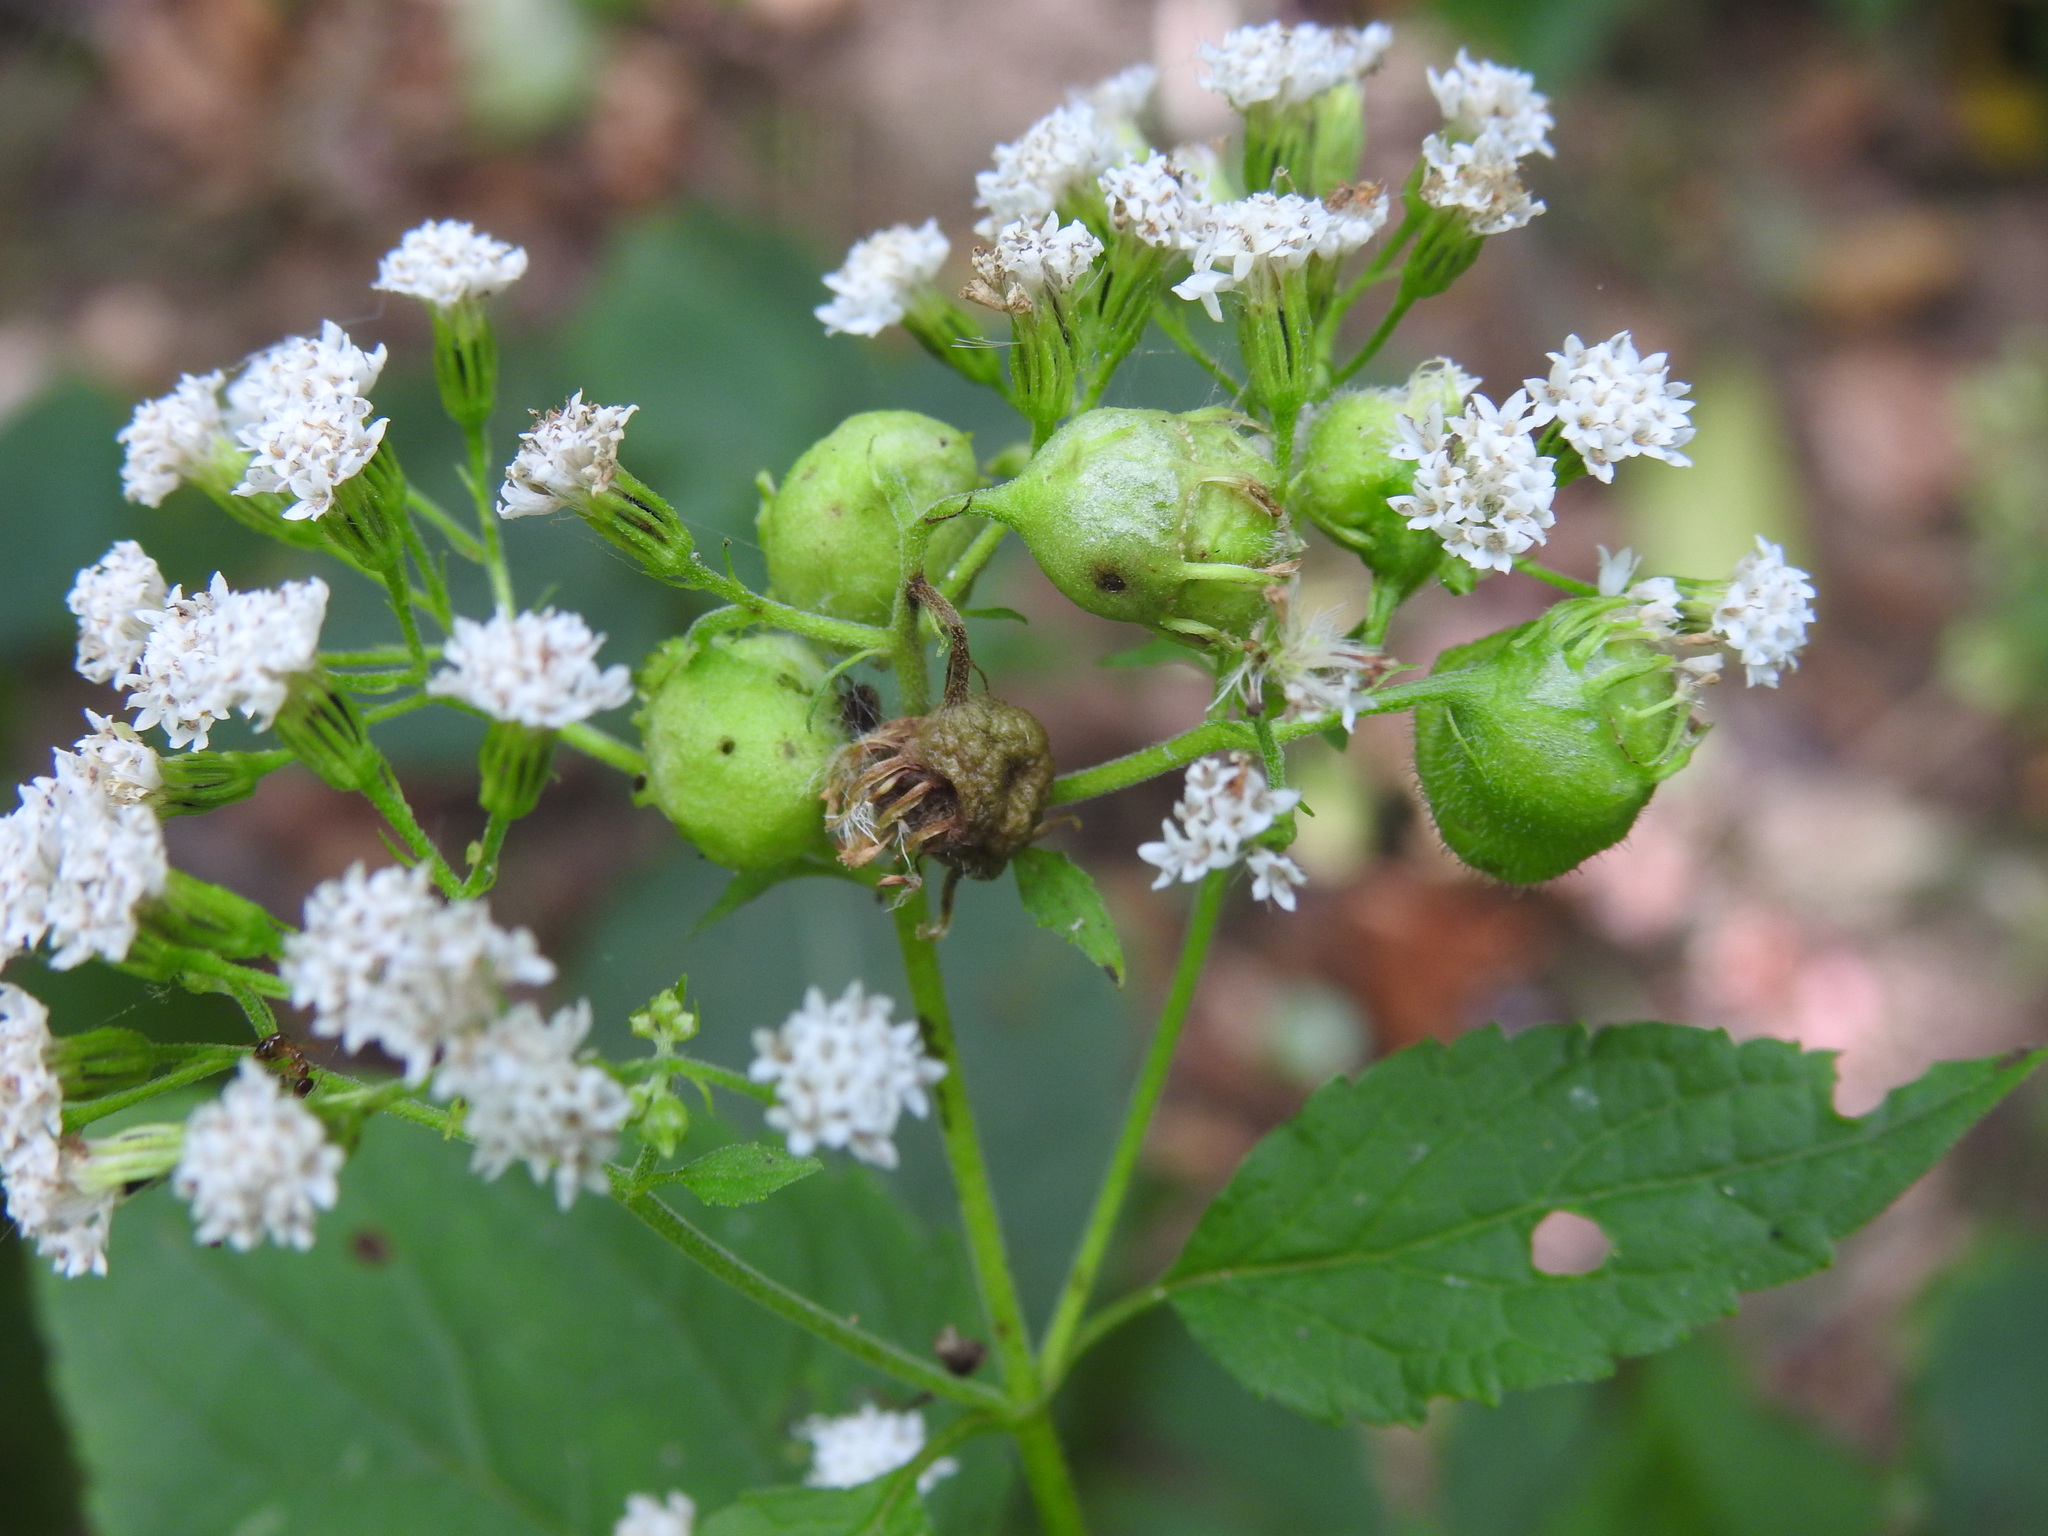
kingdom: Animalia
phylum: Arthropoda
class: Insecta
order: Diptera
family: Cecidomyiidae
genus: Schizomyia
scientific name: Schizomyia eupatoriflorae
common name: Boneset flower gall midge
